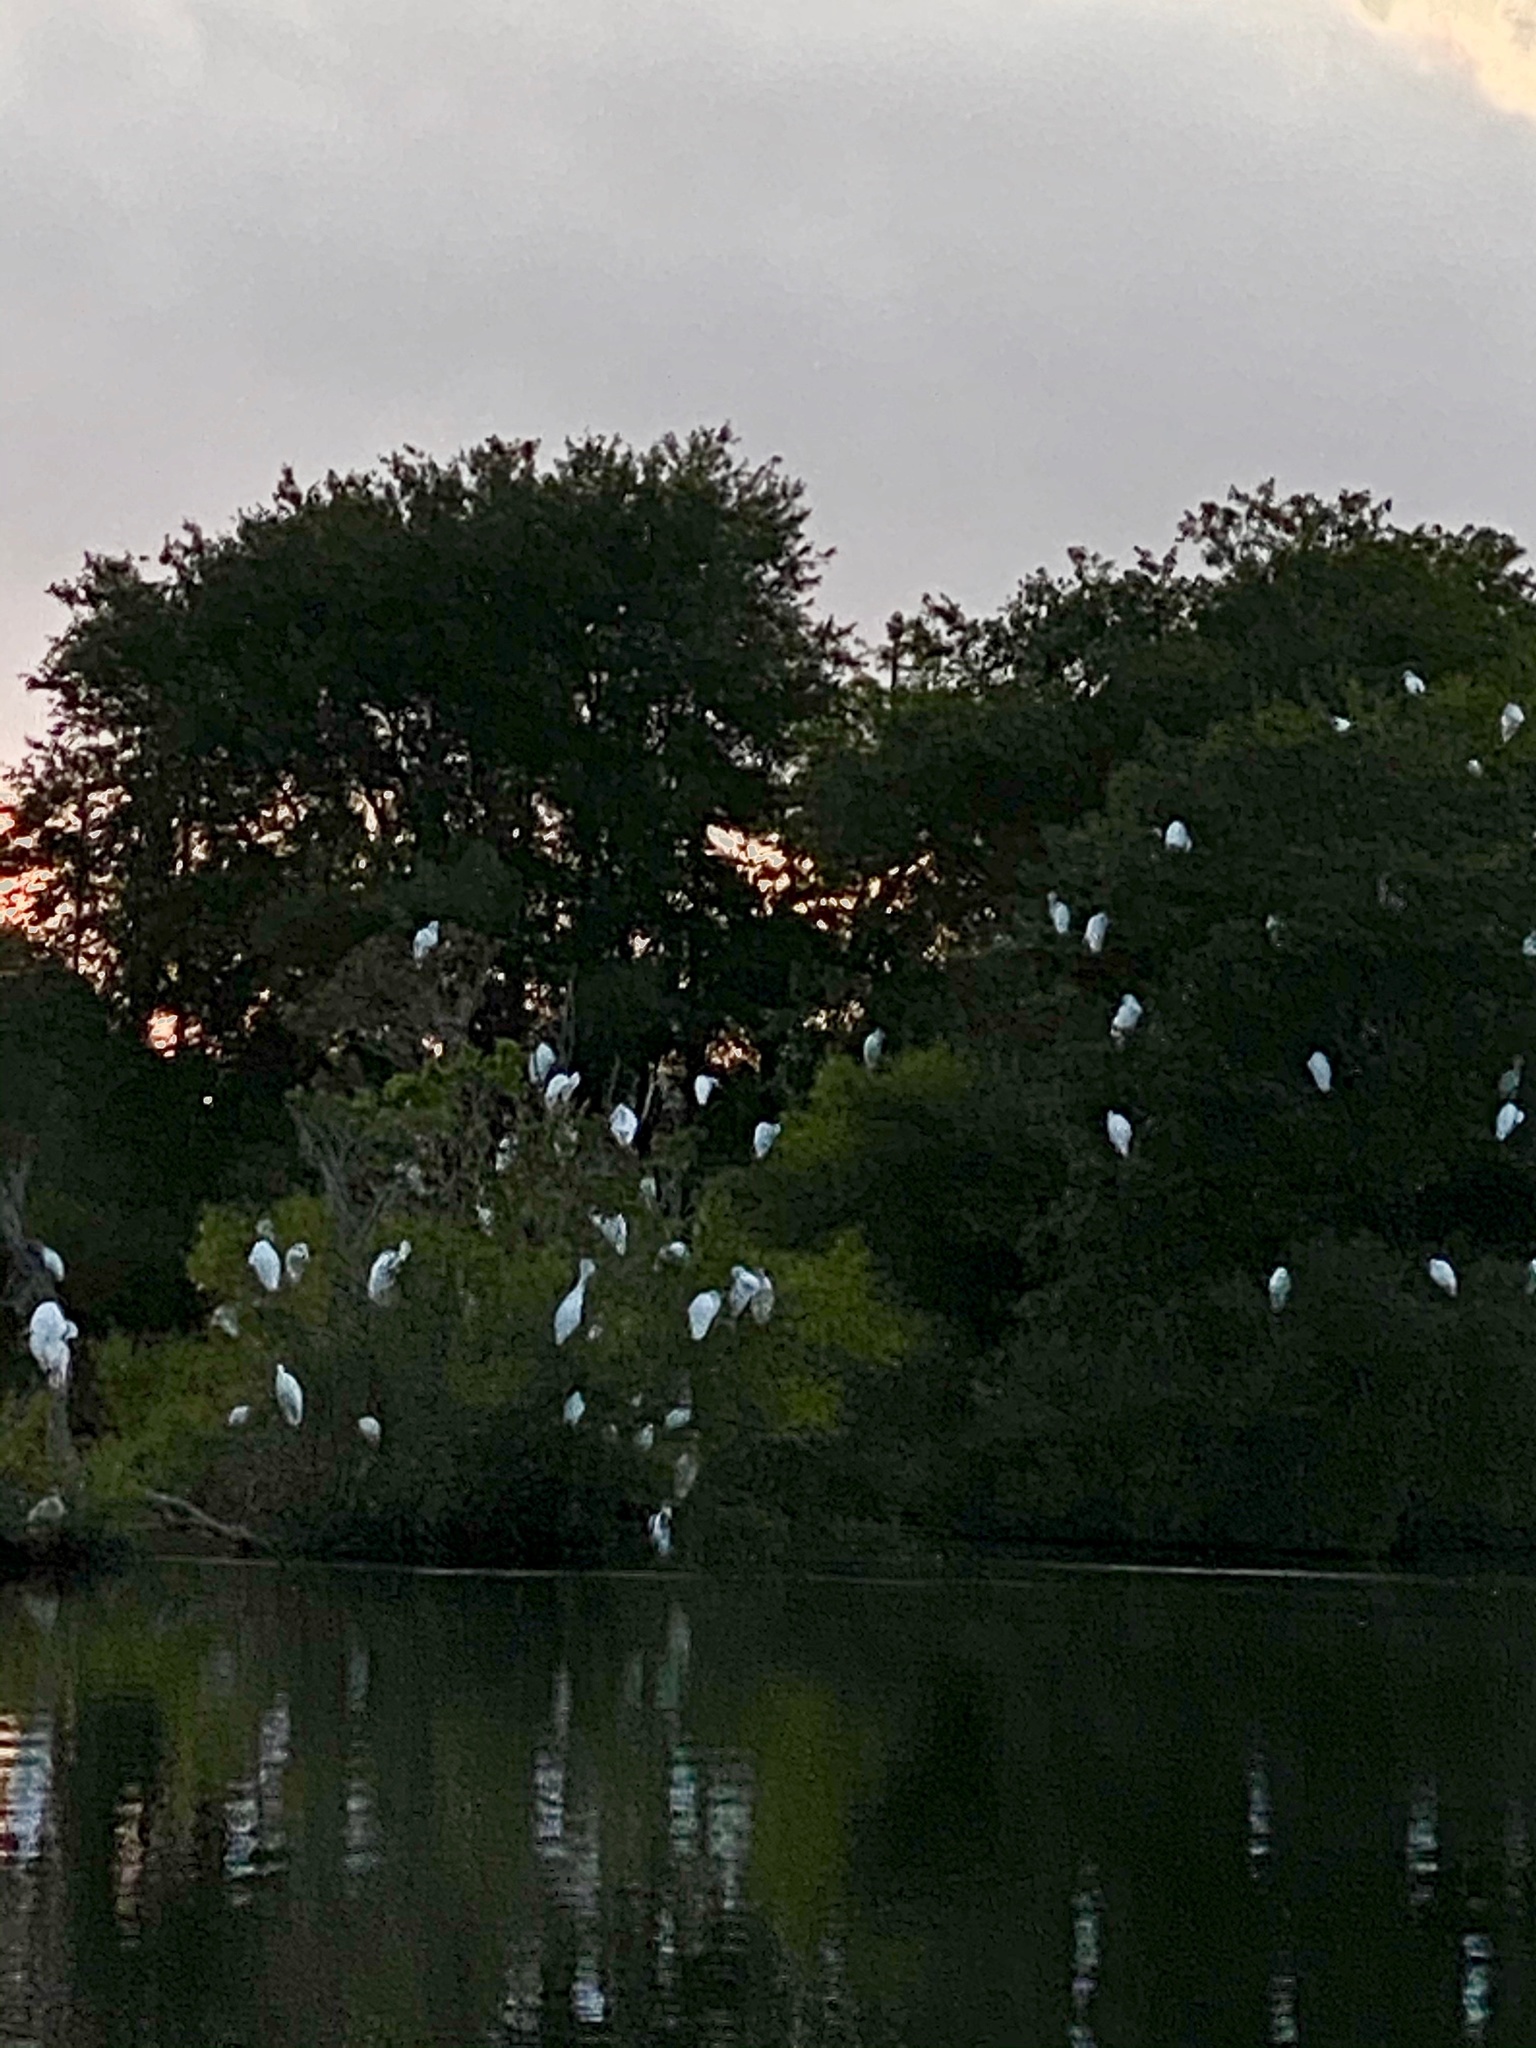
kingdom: Animalia
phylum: Chordata
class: Aves
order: Pelecaniformes
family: Ardeidae
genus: Ardea
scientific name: Ardea alba
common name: Great egret
